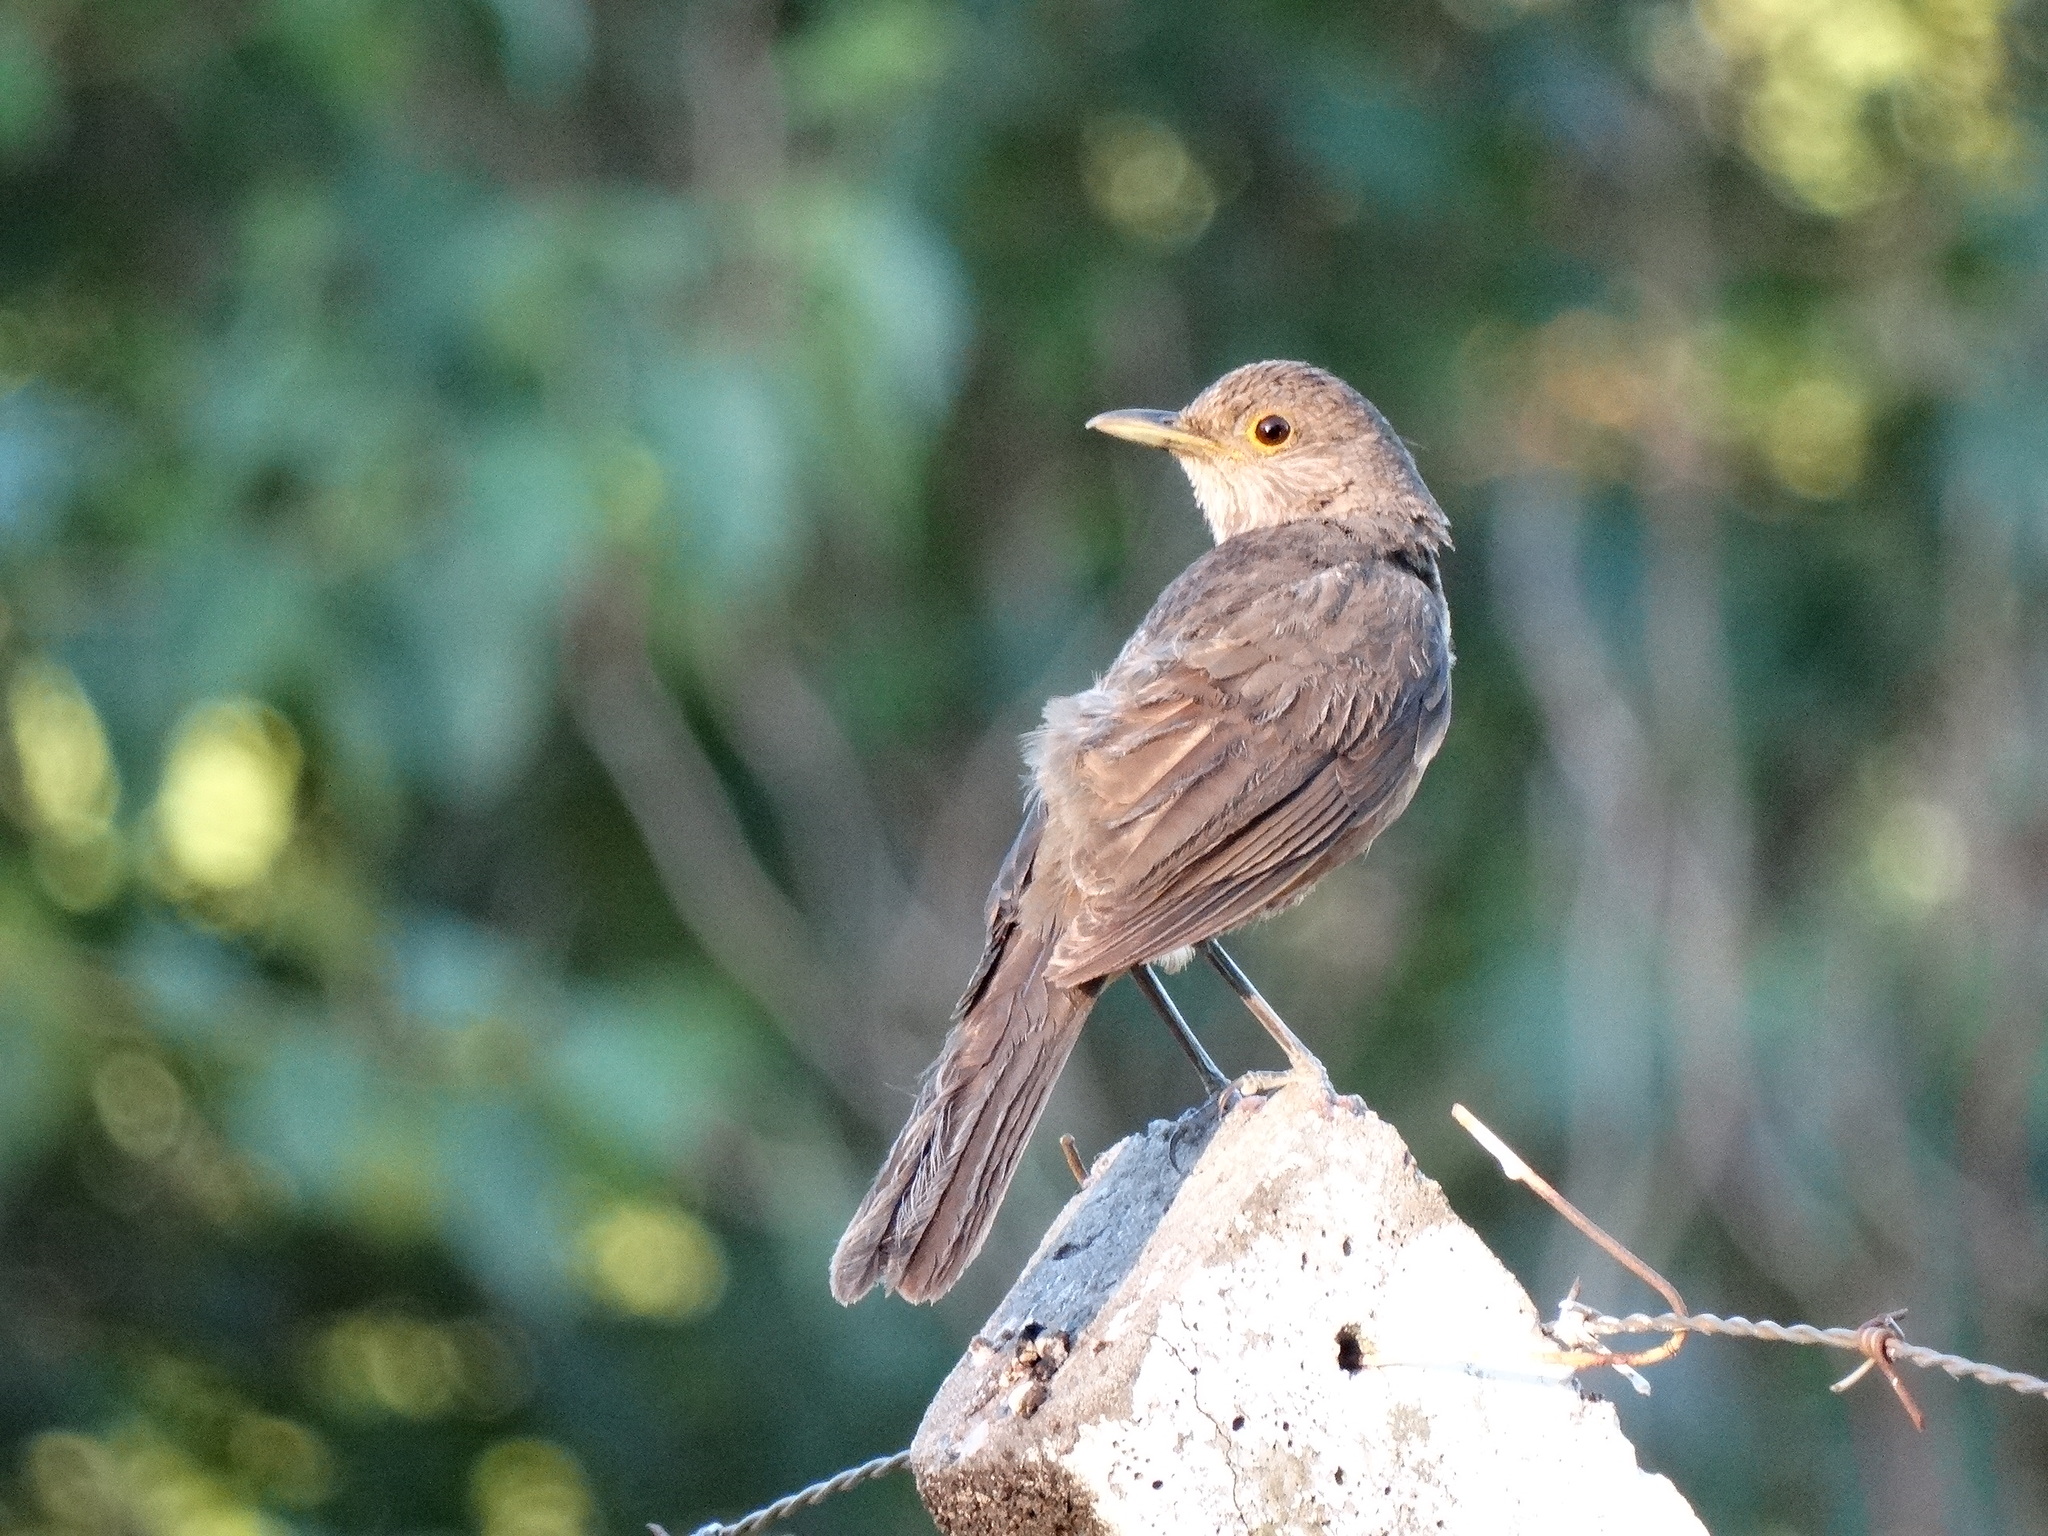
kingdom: Animalia
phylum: Chordata
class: Aves
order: Passeriformes
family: Turdidae
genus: Turdus
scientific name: Turdus rufiventris
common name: Rufous-bellied thrush
